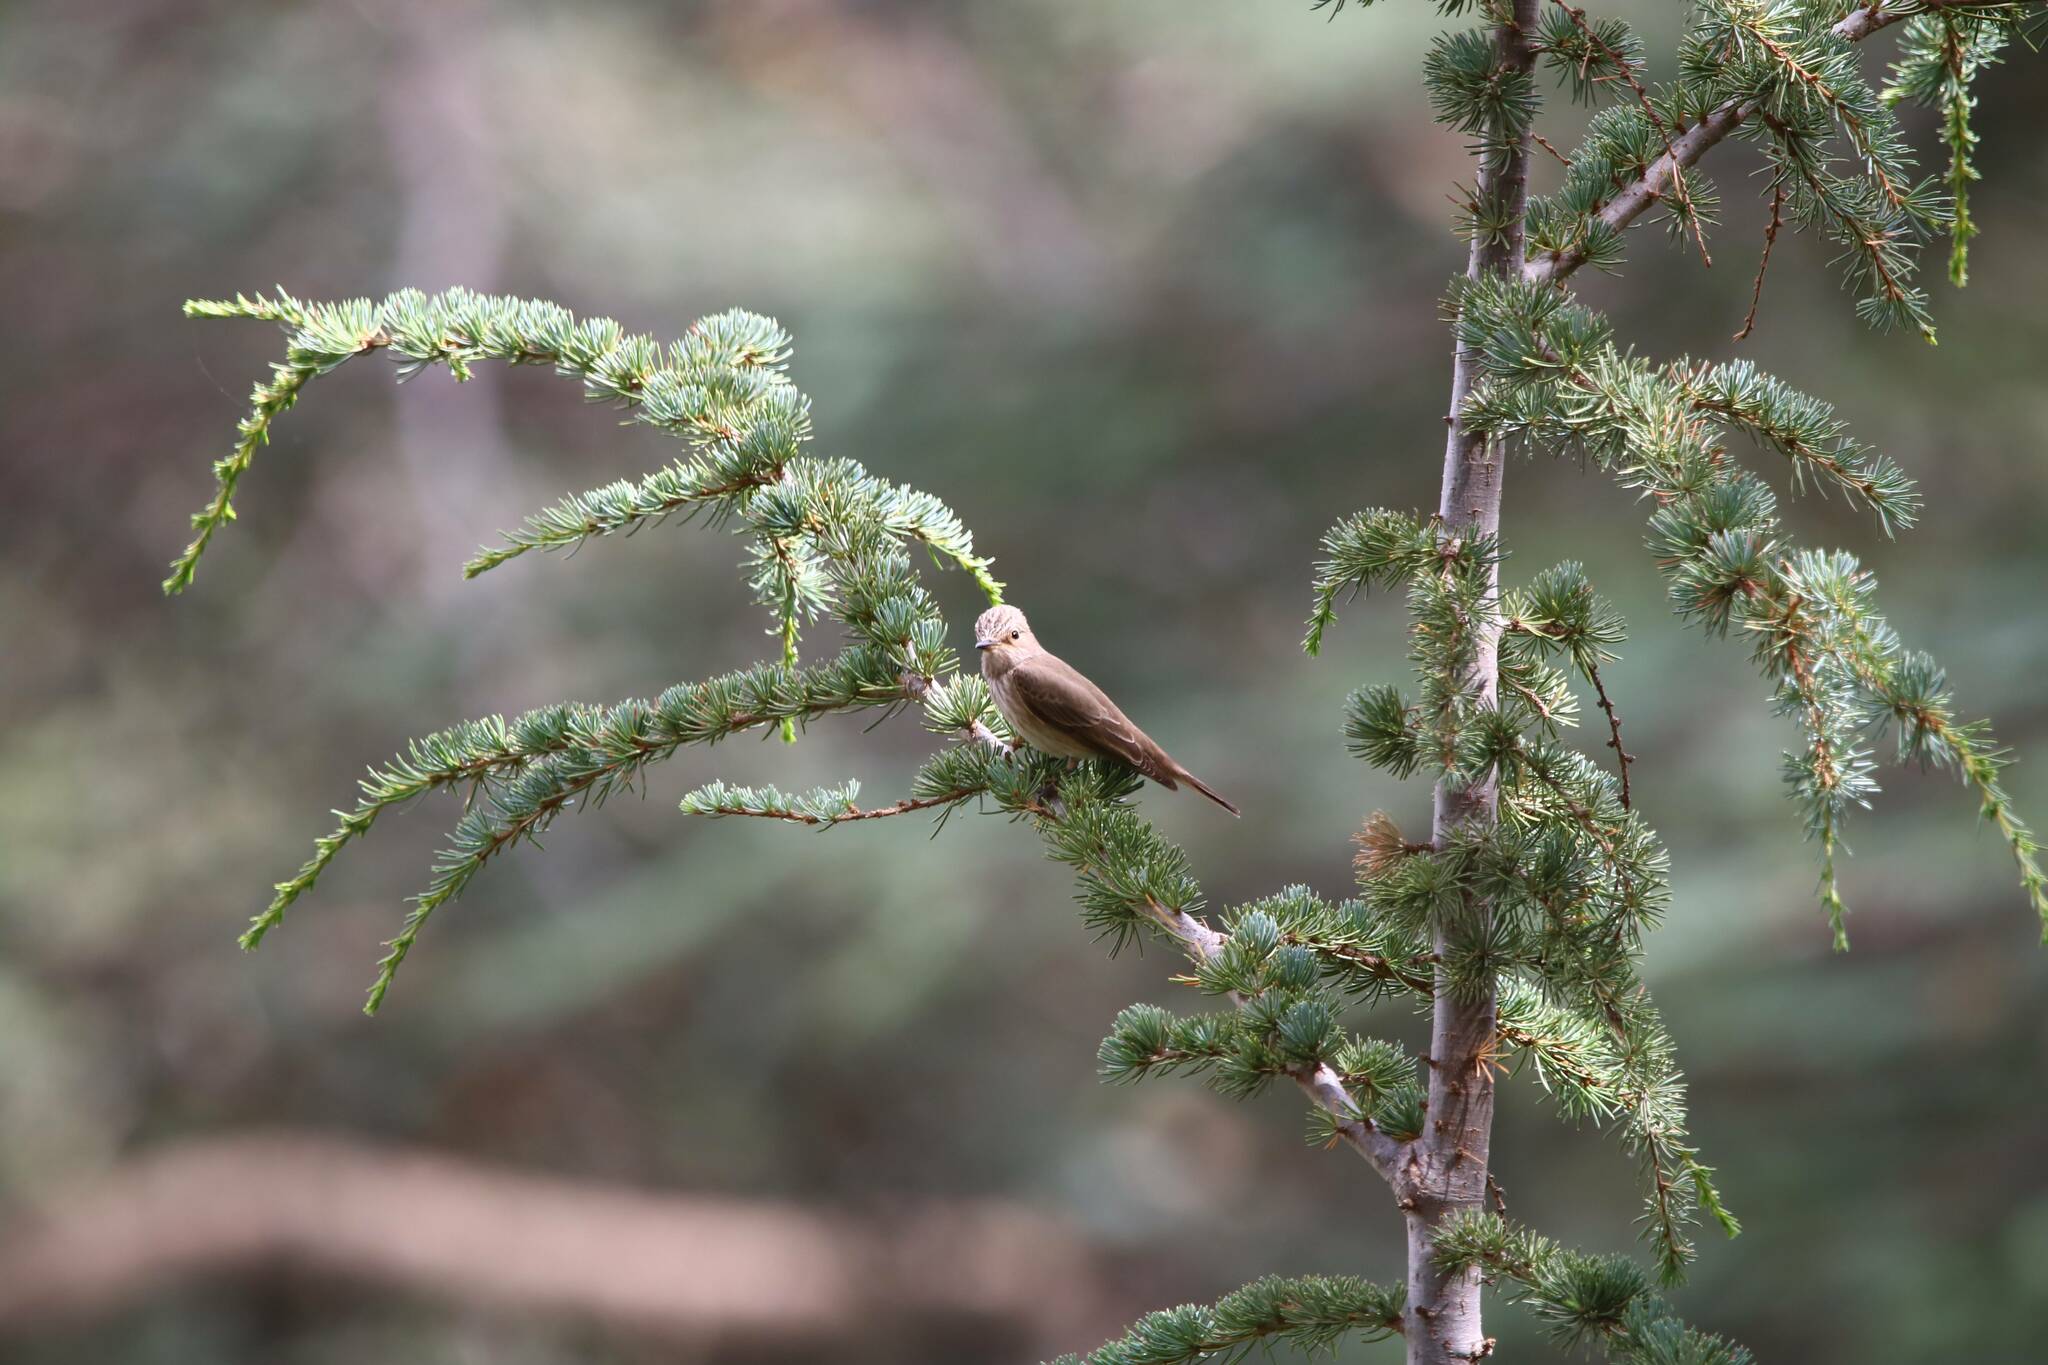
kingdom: Animalia
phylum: Chordata
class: Aves
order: Passeriformes
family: Muscicapidae
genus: Muscicapa
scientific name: Muscicapa striata
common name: Spotted flycatcher
